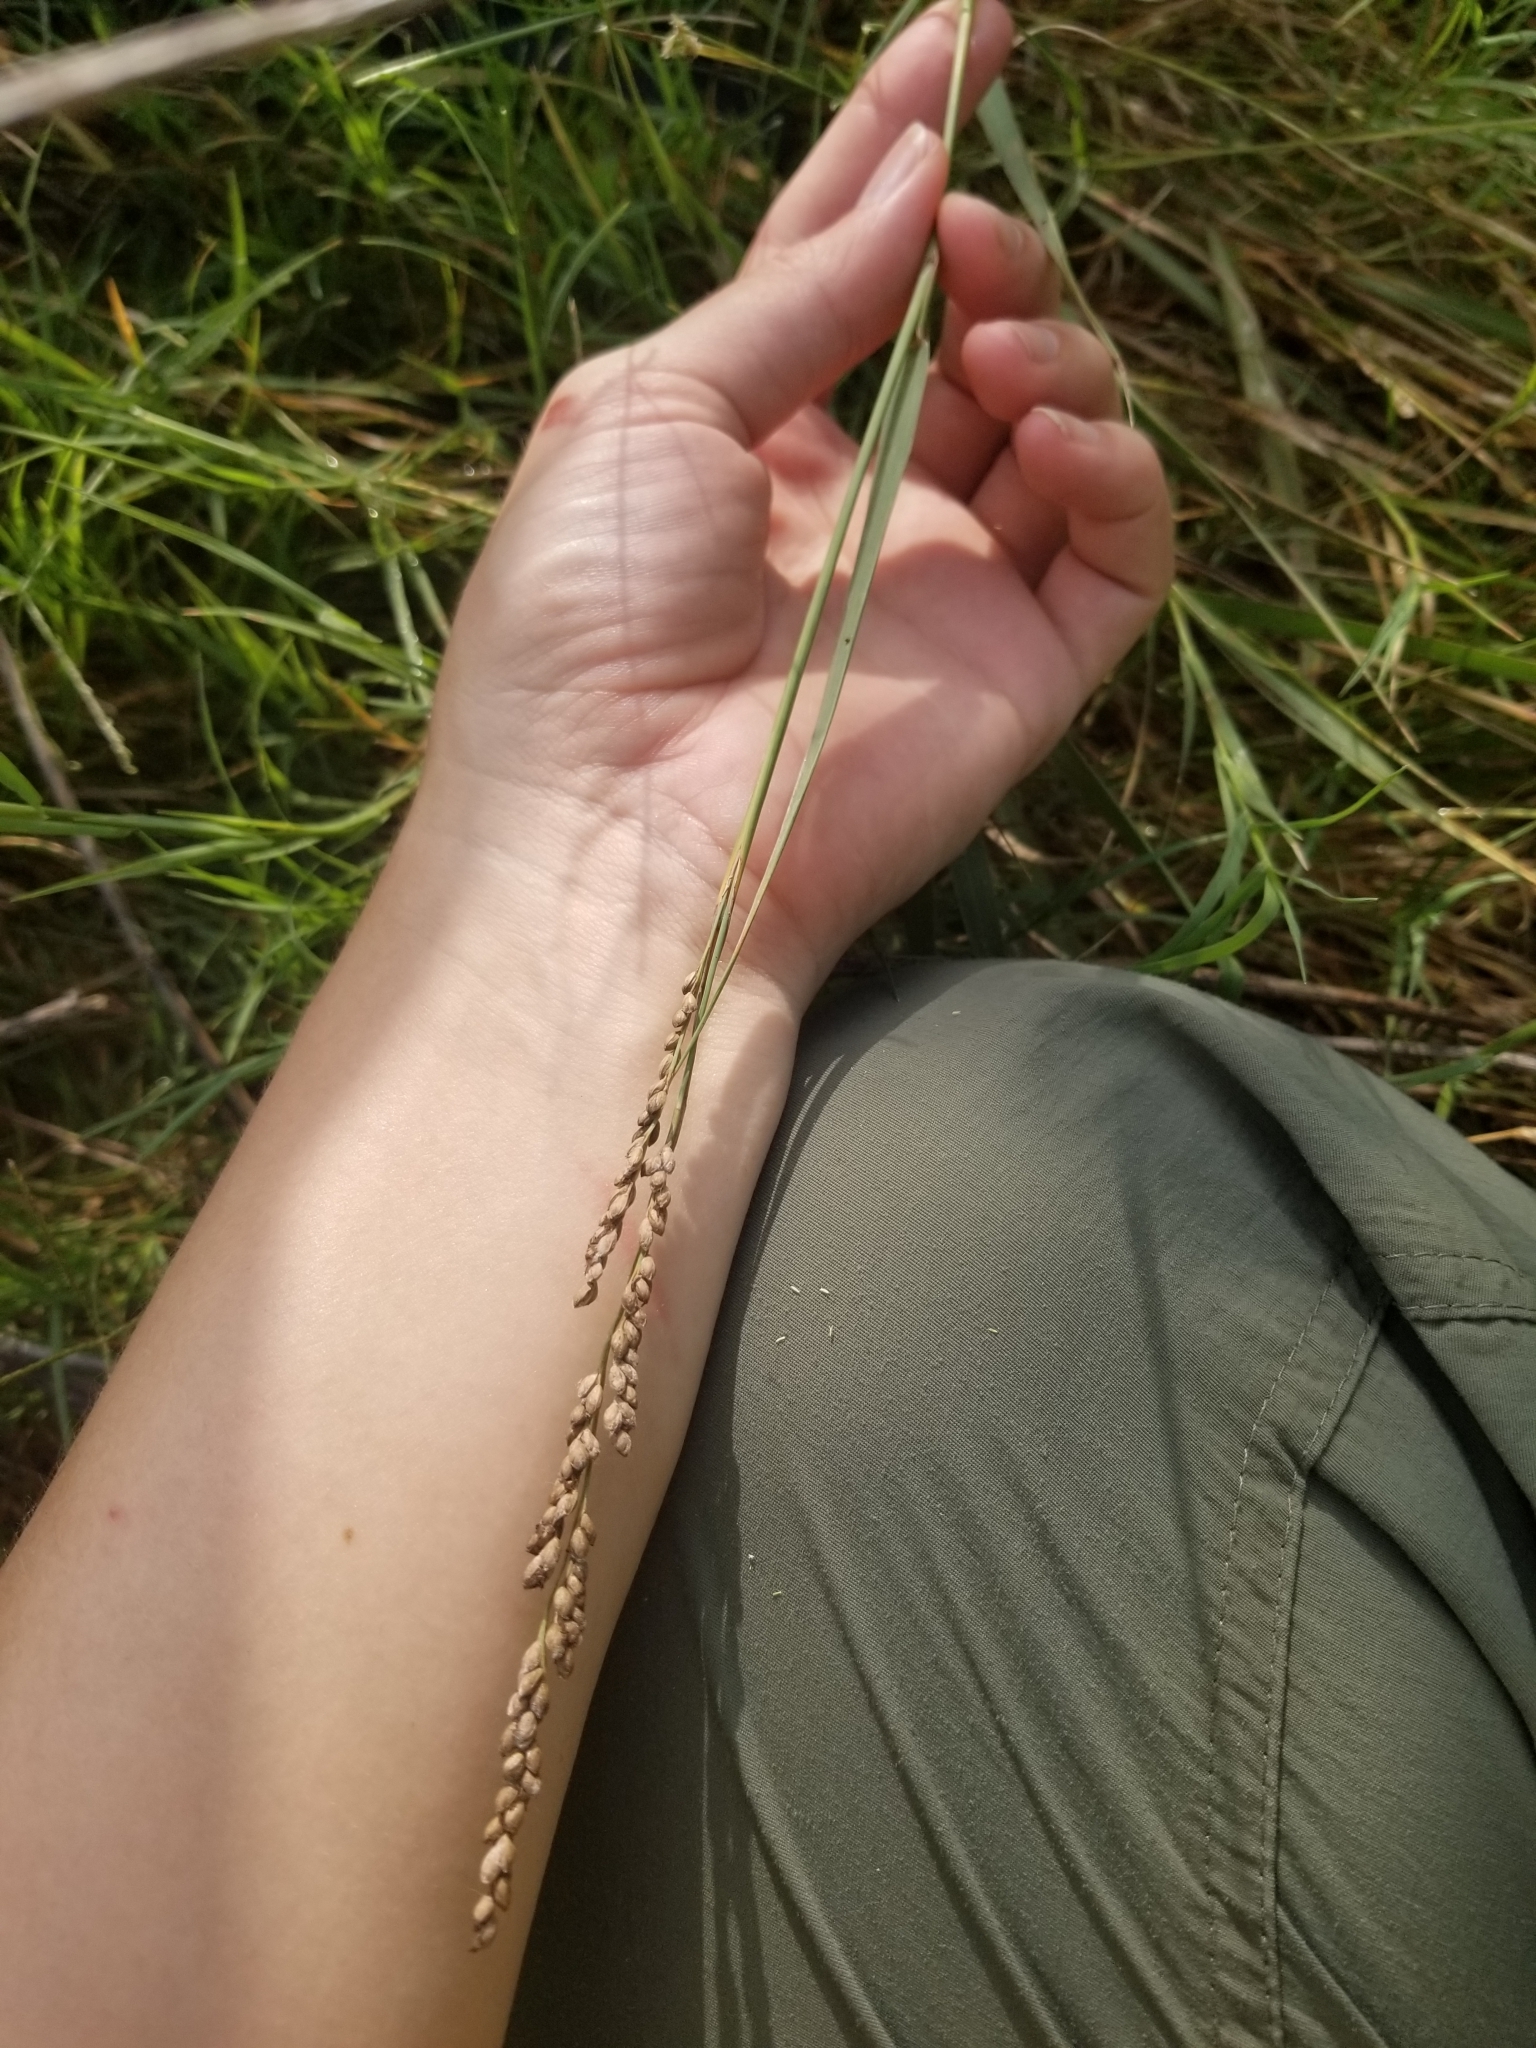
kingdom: Plantae
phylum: Tracheophyta
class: Liliopsida
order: Poales
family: Poaceae
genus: Hopia
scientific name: Hopia obtusa
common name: Vine-mesquite
